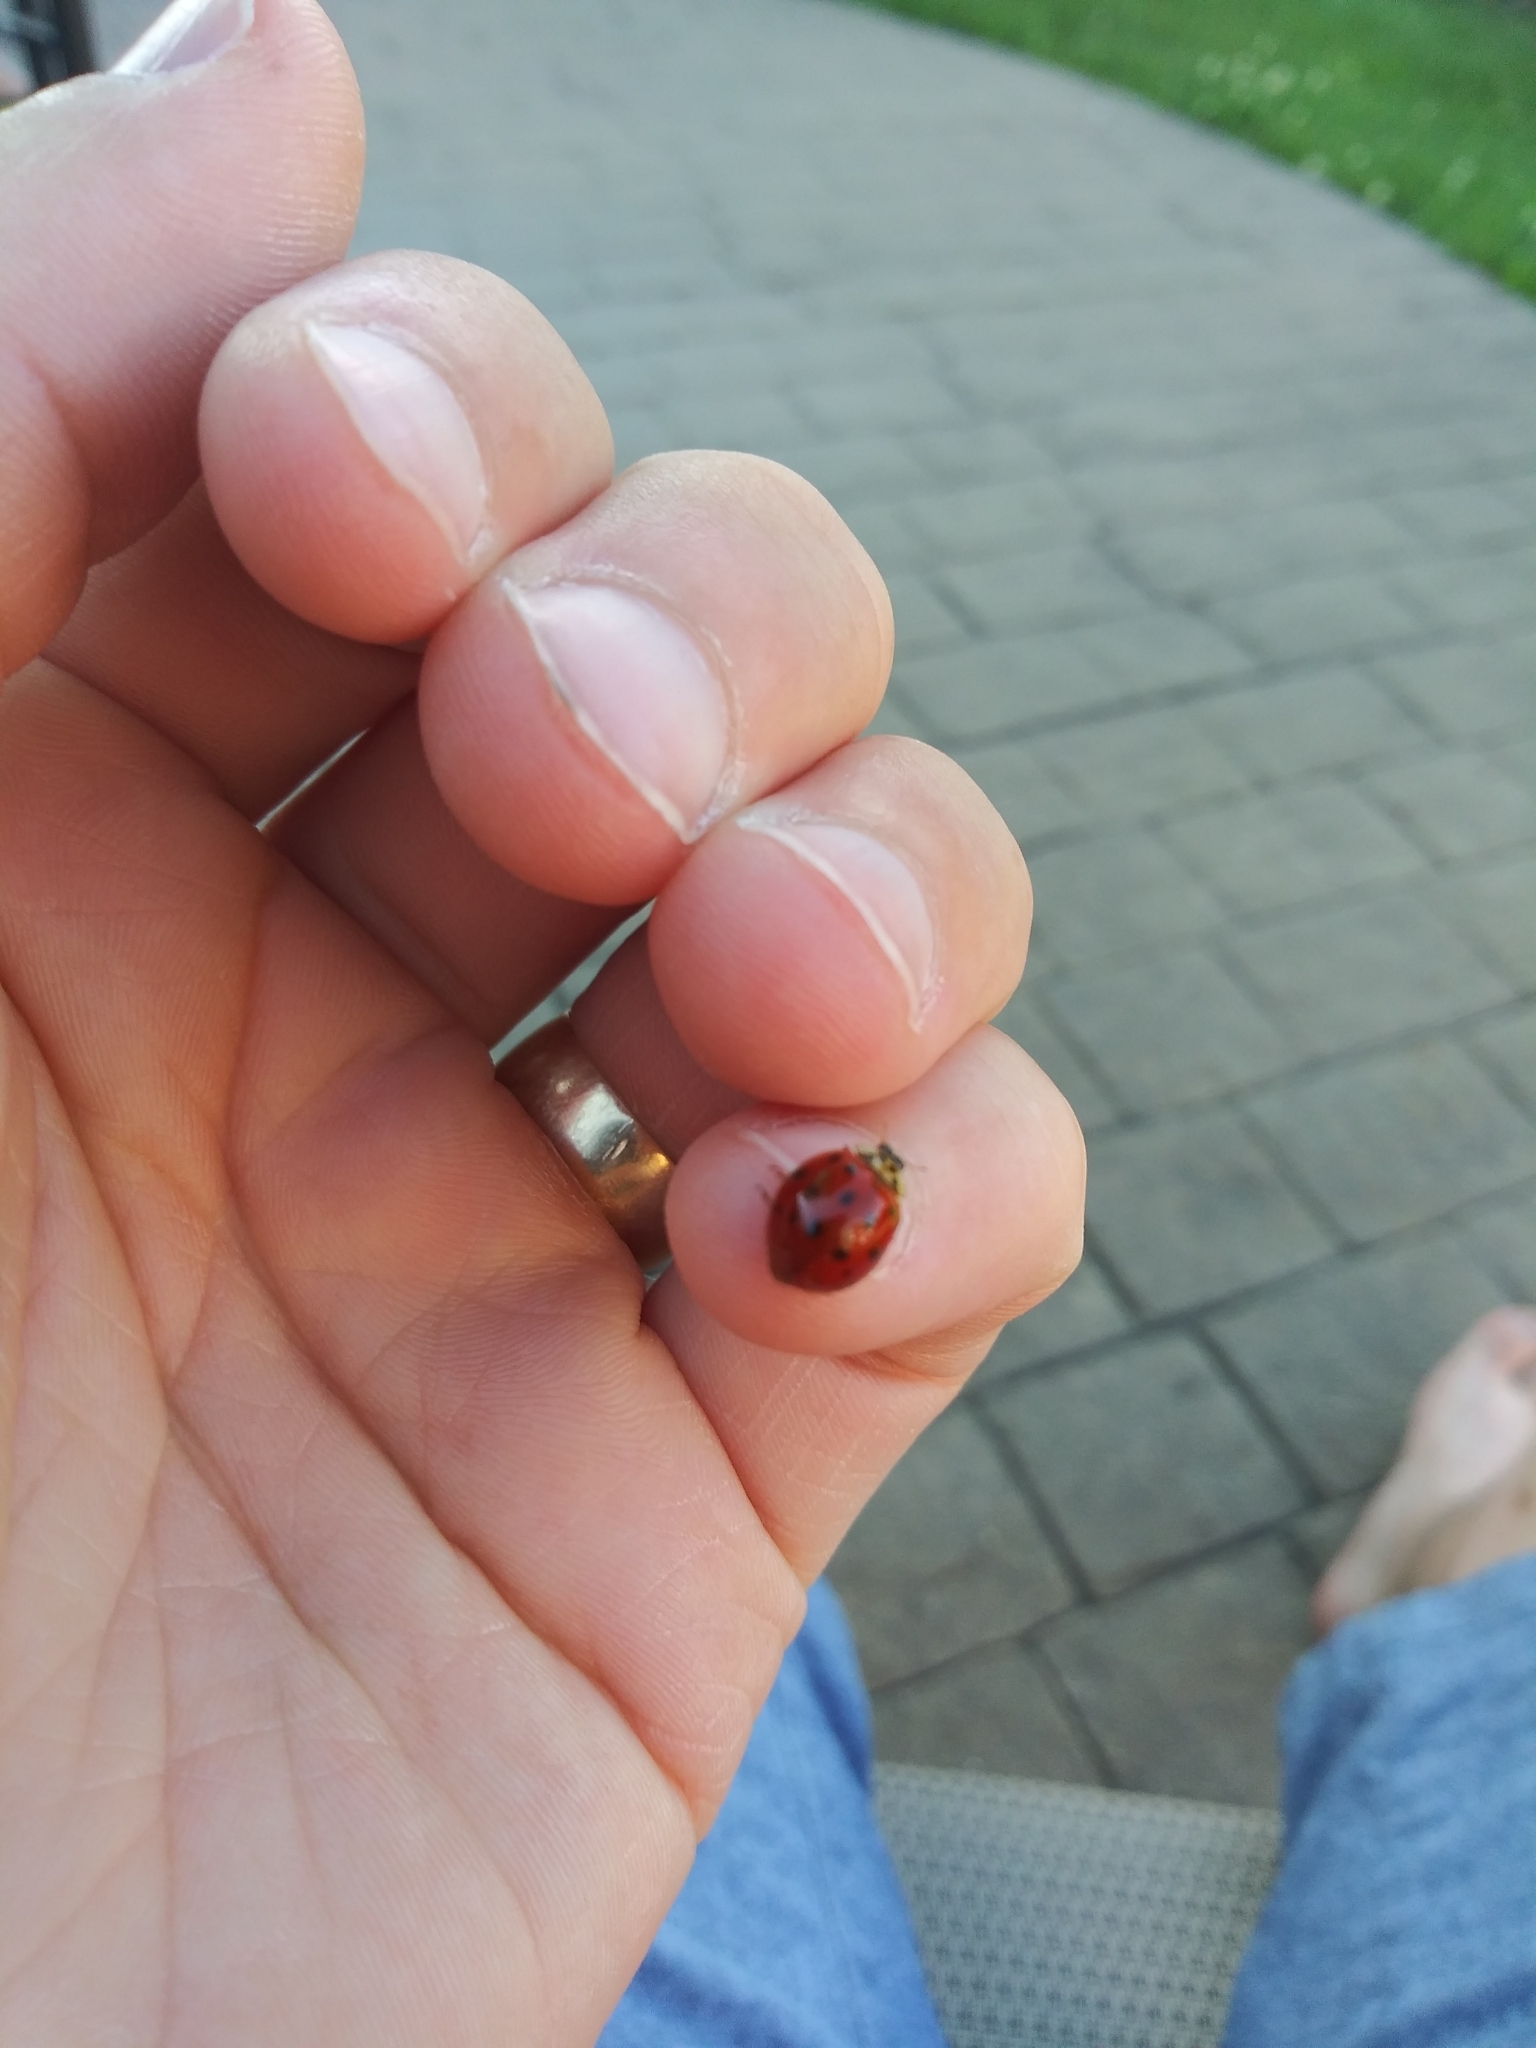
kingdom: Animalia
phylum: Arthropoda
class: Insecta
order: Coleoptera
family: Coccinellidae
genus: Harmonia
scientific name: Harmonia axyridis
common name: Harlequin ladybird
